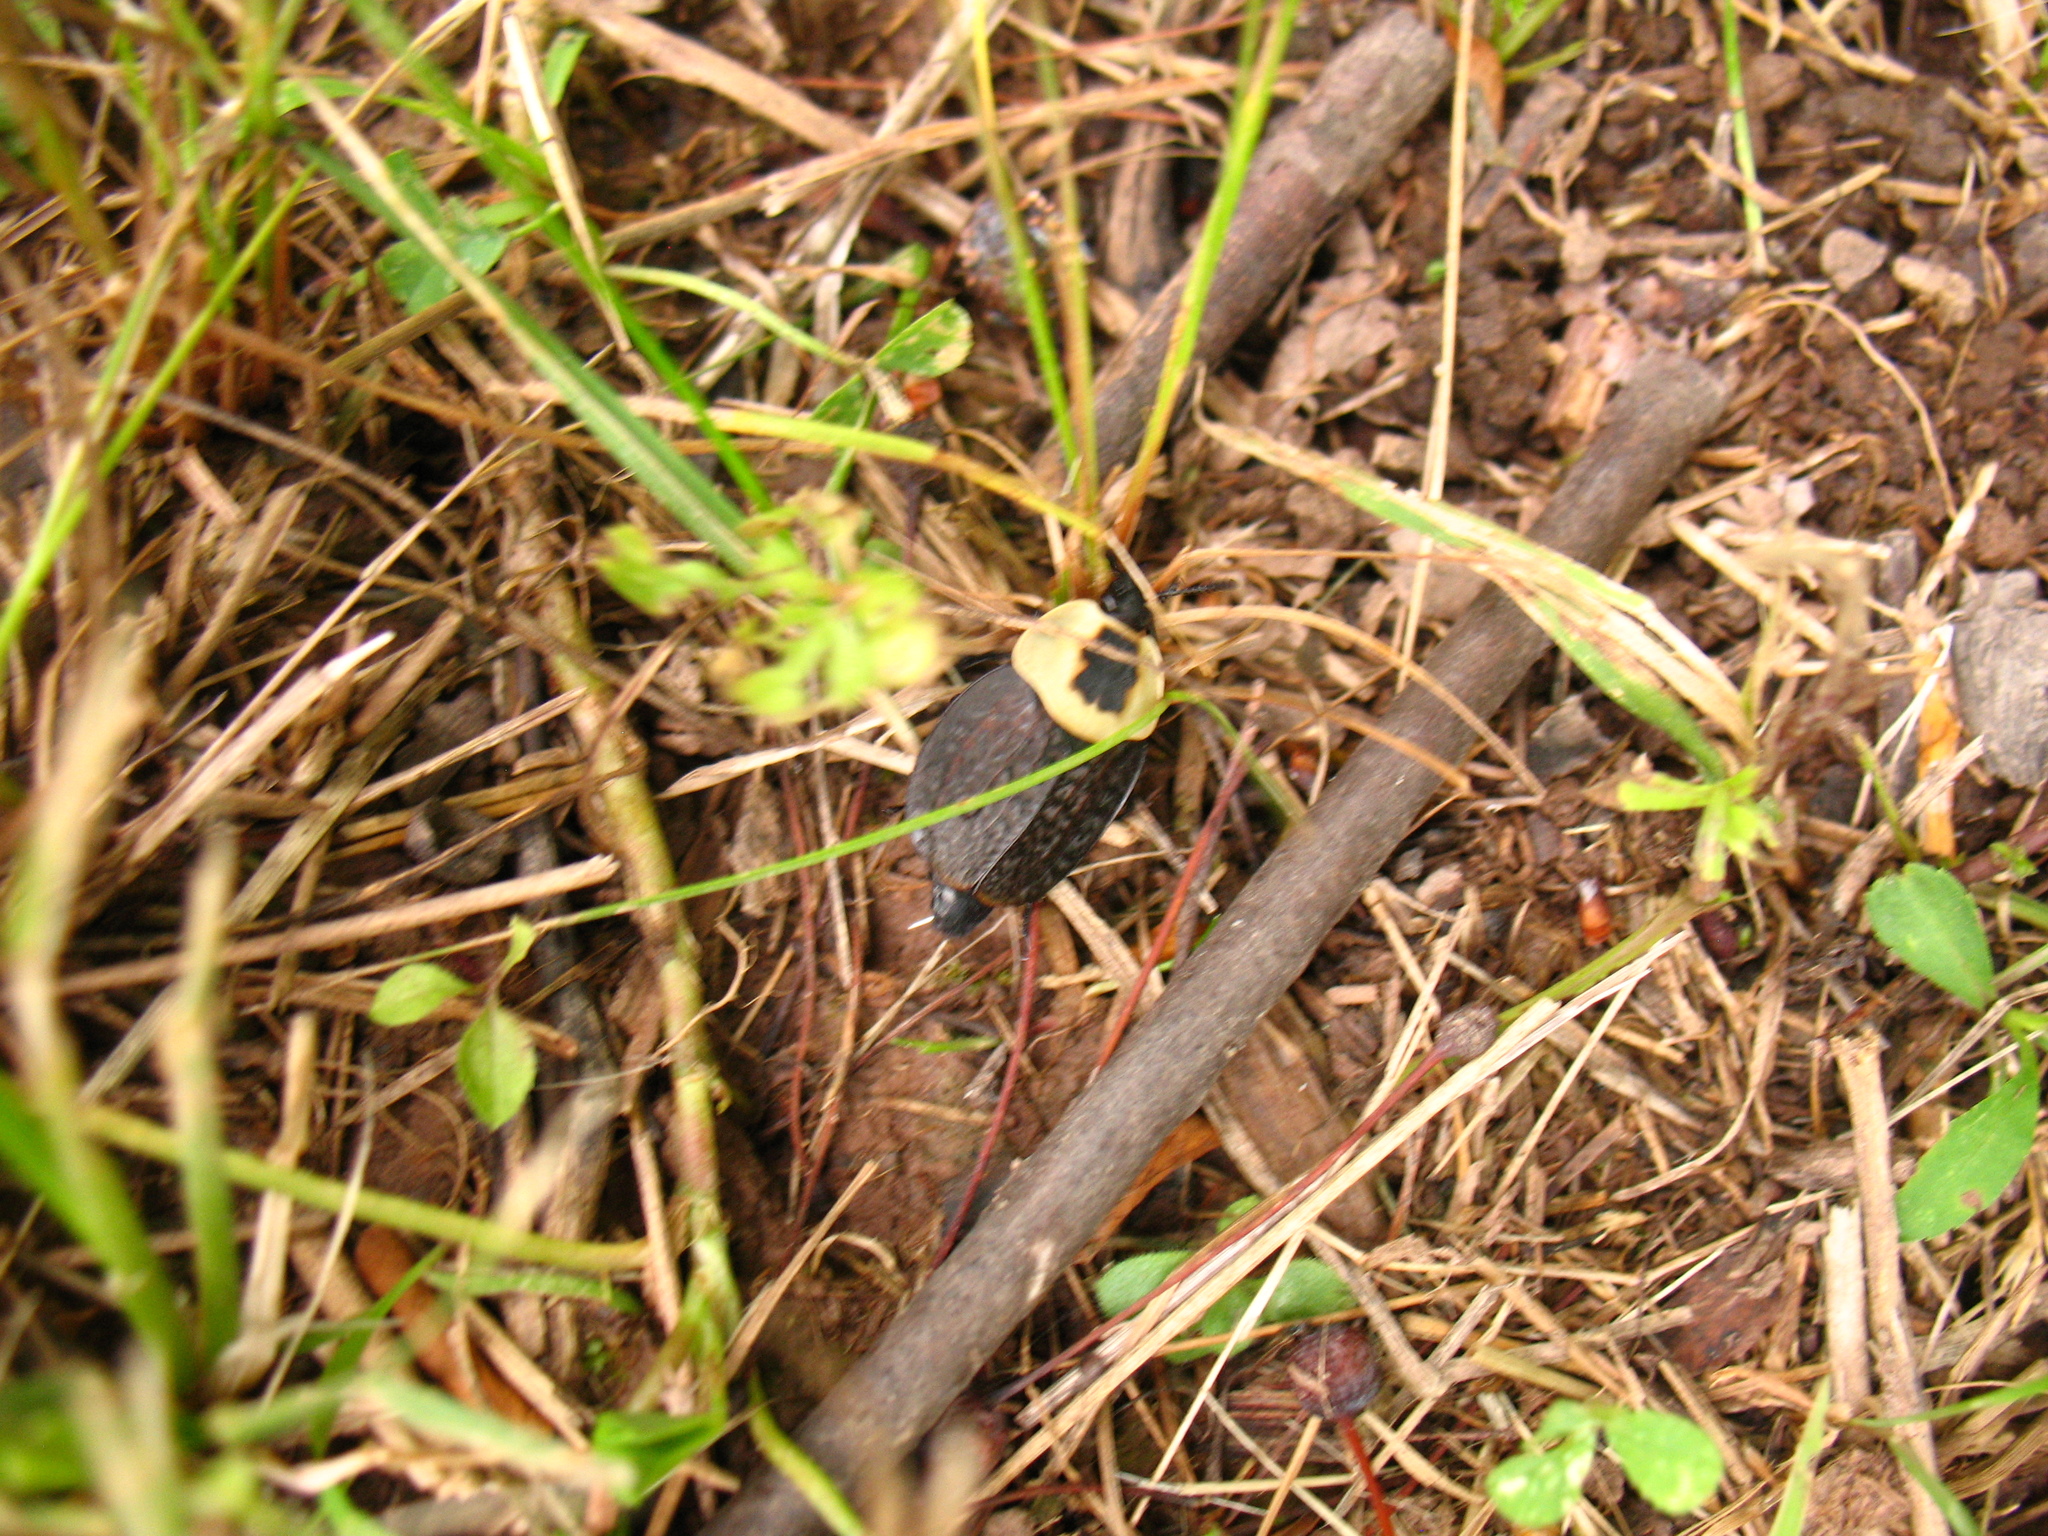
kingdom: Animalia
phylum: Arthropoda
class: Insecta
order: Coleoptera
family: Staphylinidae
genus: Necrophila
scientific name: Necrophila americana
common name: American carrion beetle
